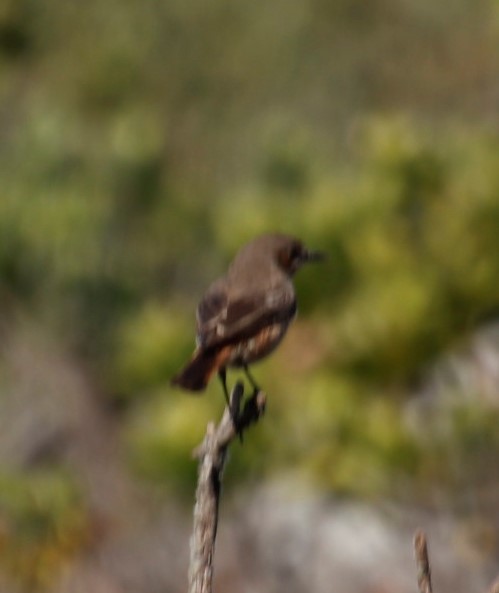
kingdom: Animalia
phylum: Chordata
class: Aves
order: Passeriformes
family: Muscicapidae
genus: Oenanthe
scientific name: Oenanthe familiaris
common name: Familiar chat
